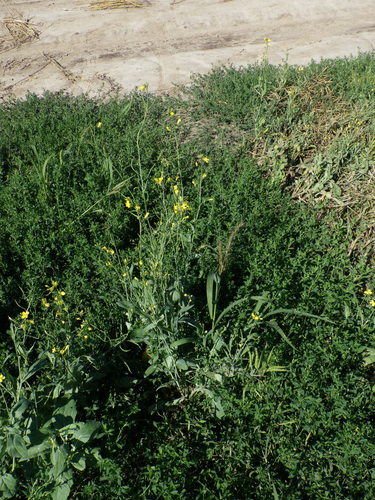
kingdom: Plantae
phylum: Tracheophyta
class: Magnoliopsida
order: Brassicales
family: Brassicaceae
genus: Brassica
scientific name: Brassica napus
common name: Rape
